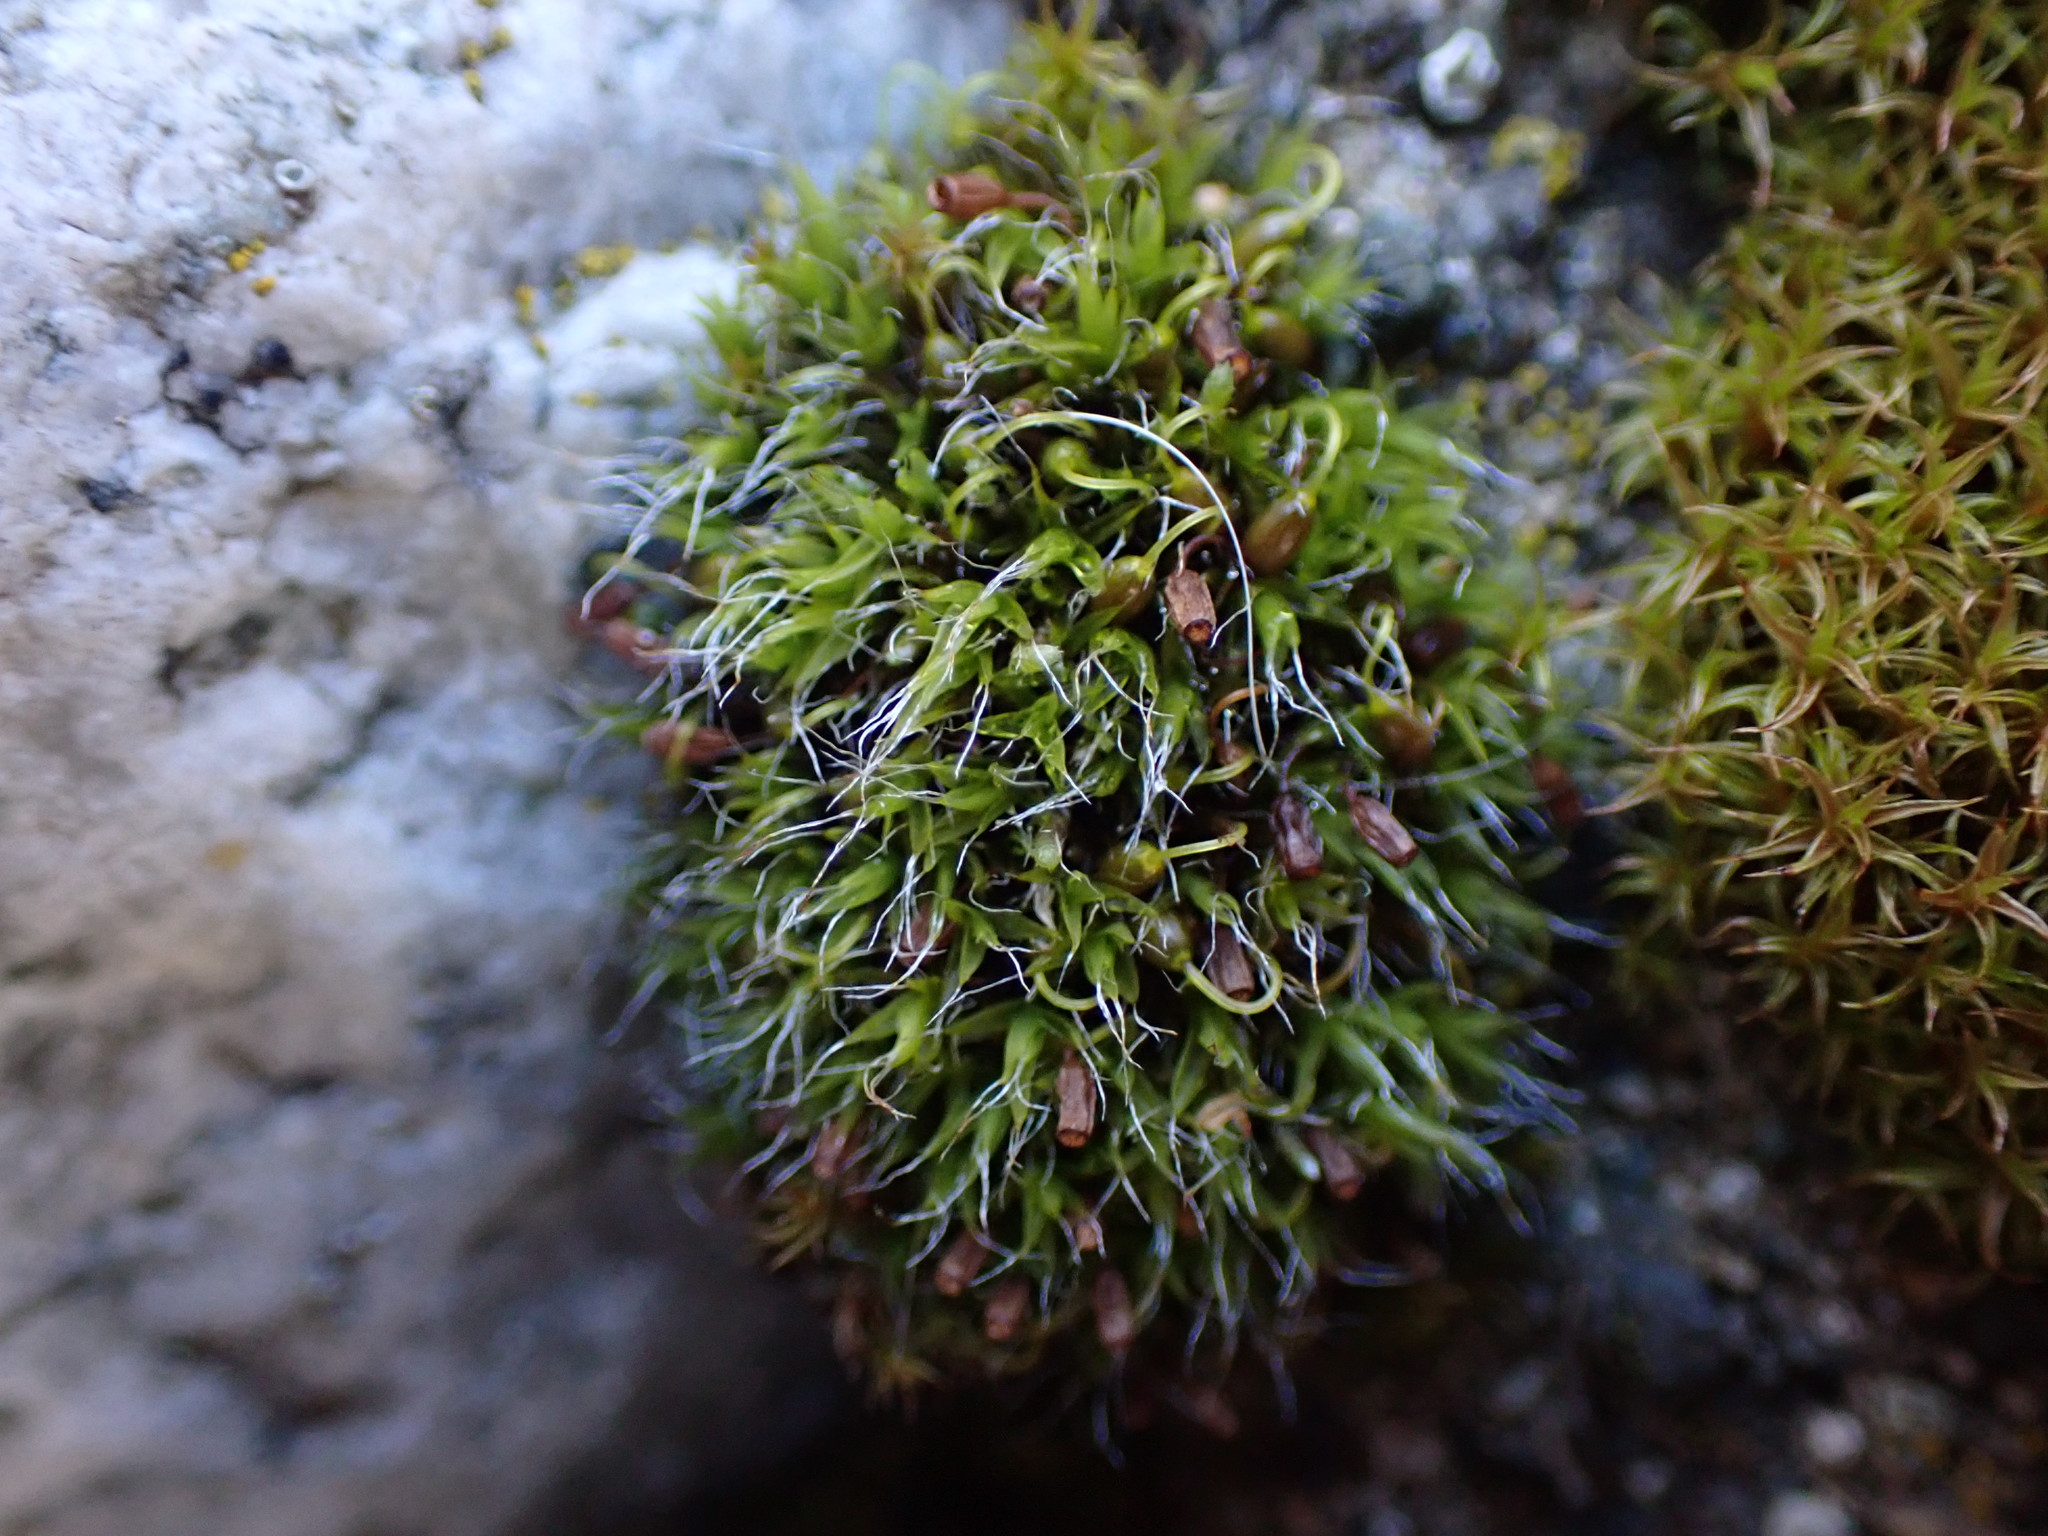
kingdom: Plantae
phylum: Bryophyta
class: Bryopsida
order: Grimmiales
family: Grimmiaceae
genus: Grimmia
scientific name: Grimmia pulvinata
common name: Grey-cushioned grimmia
